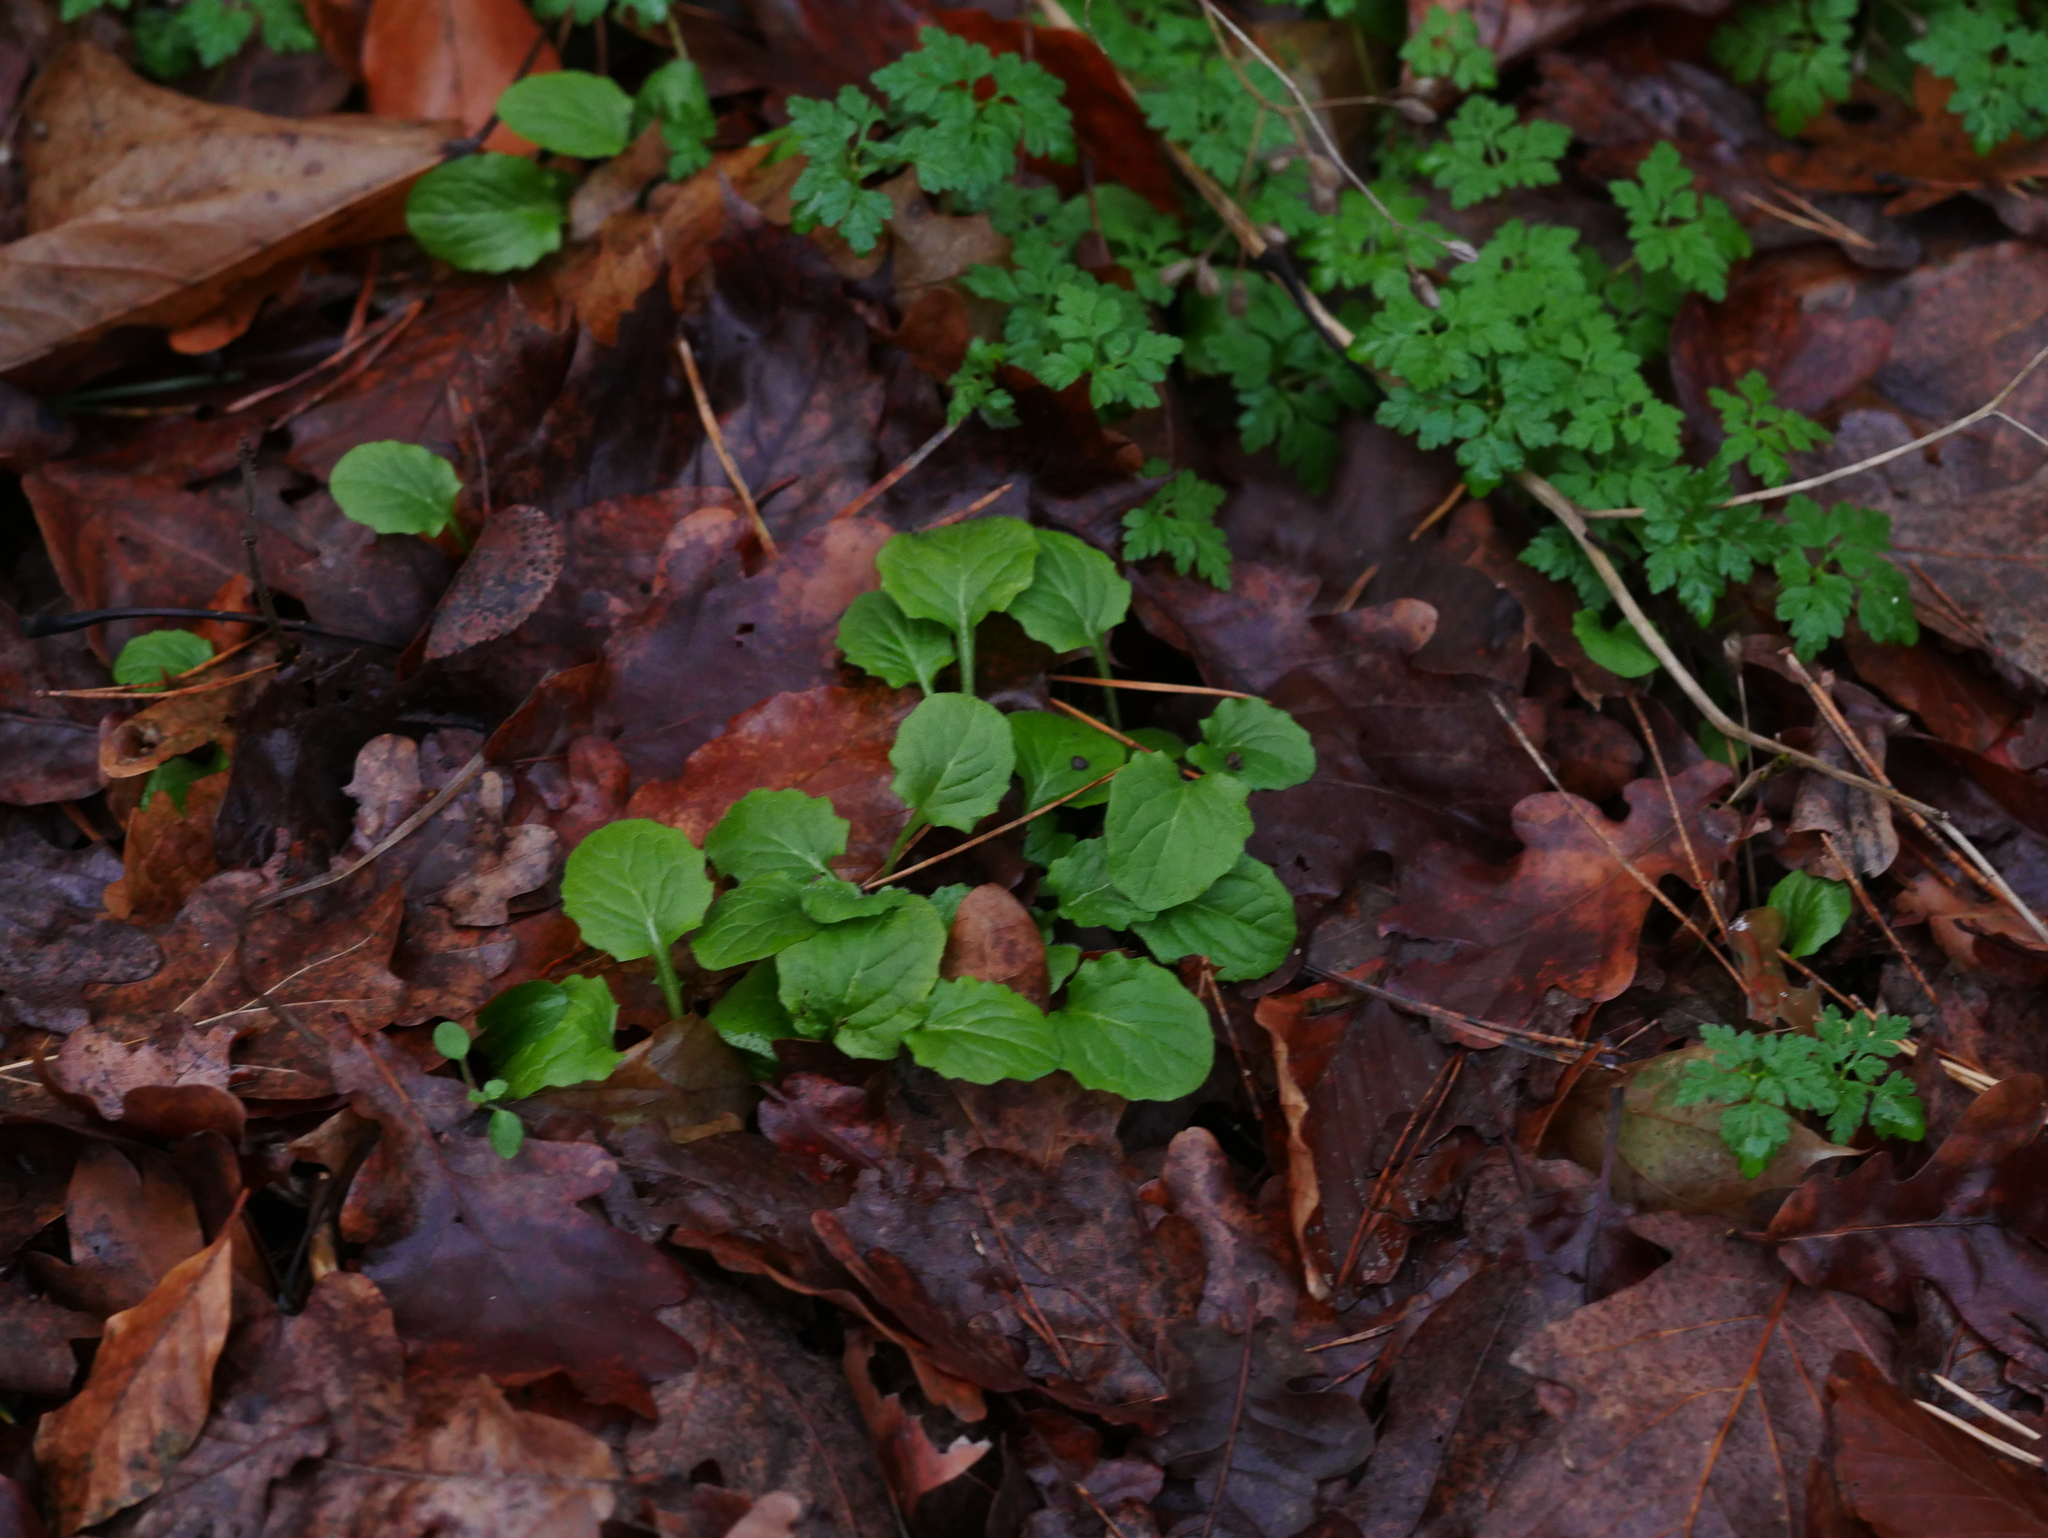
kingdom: Plantae
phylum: Tracheophyta
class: Magnoliopsida
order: Asterales
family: Asteraceae
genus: Lapsana
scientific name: Lapsana communis
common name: Nipplewort
